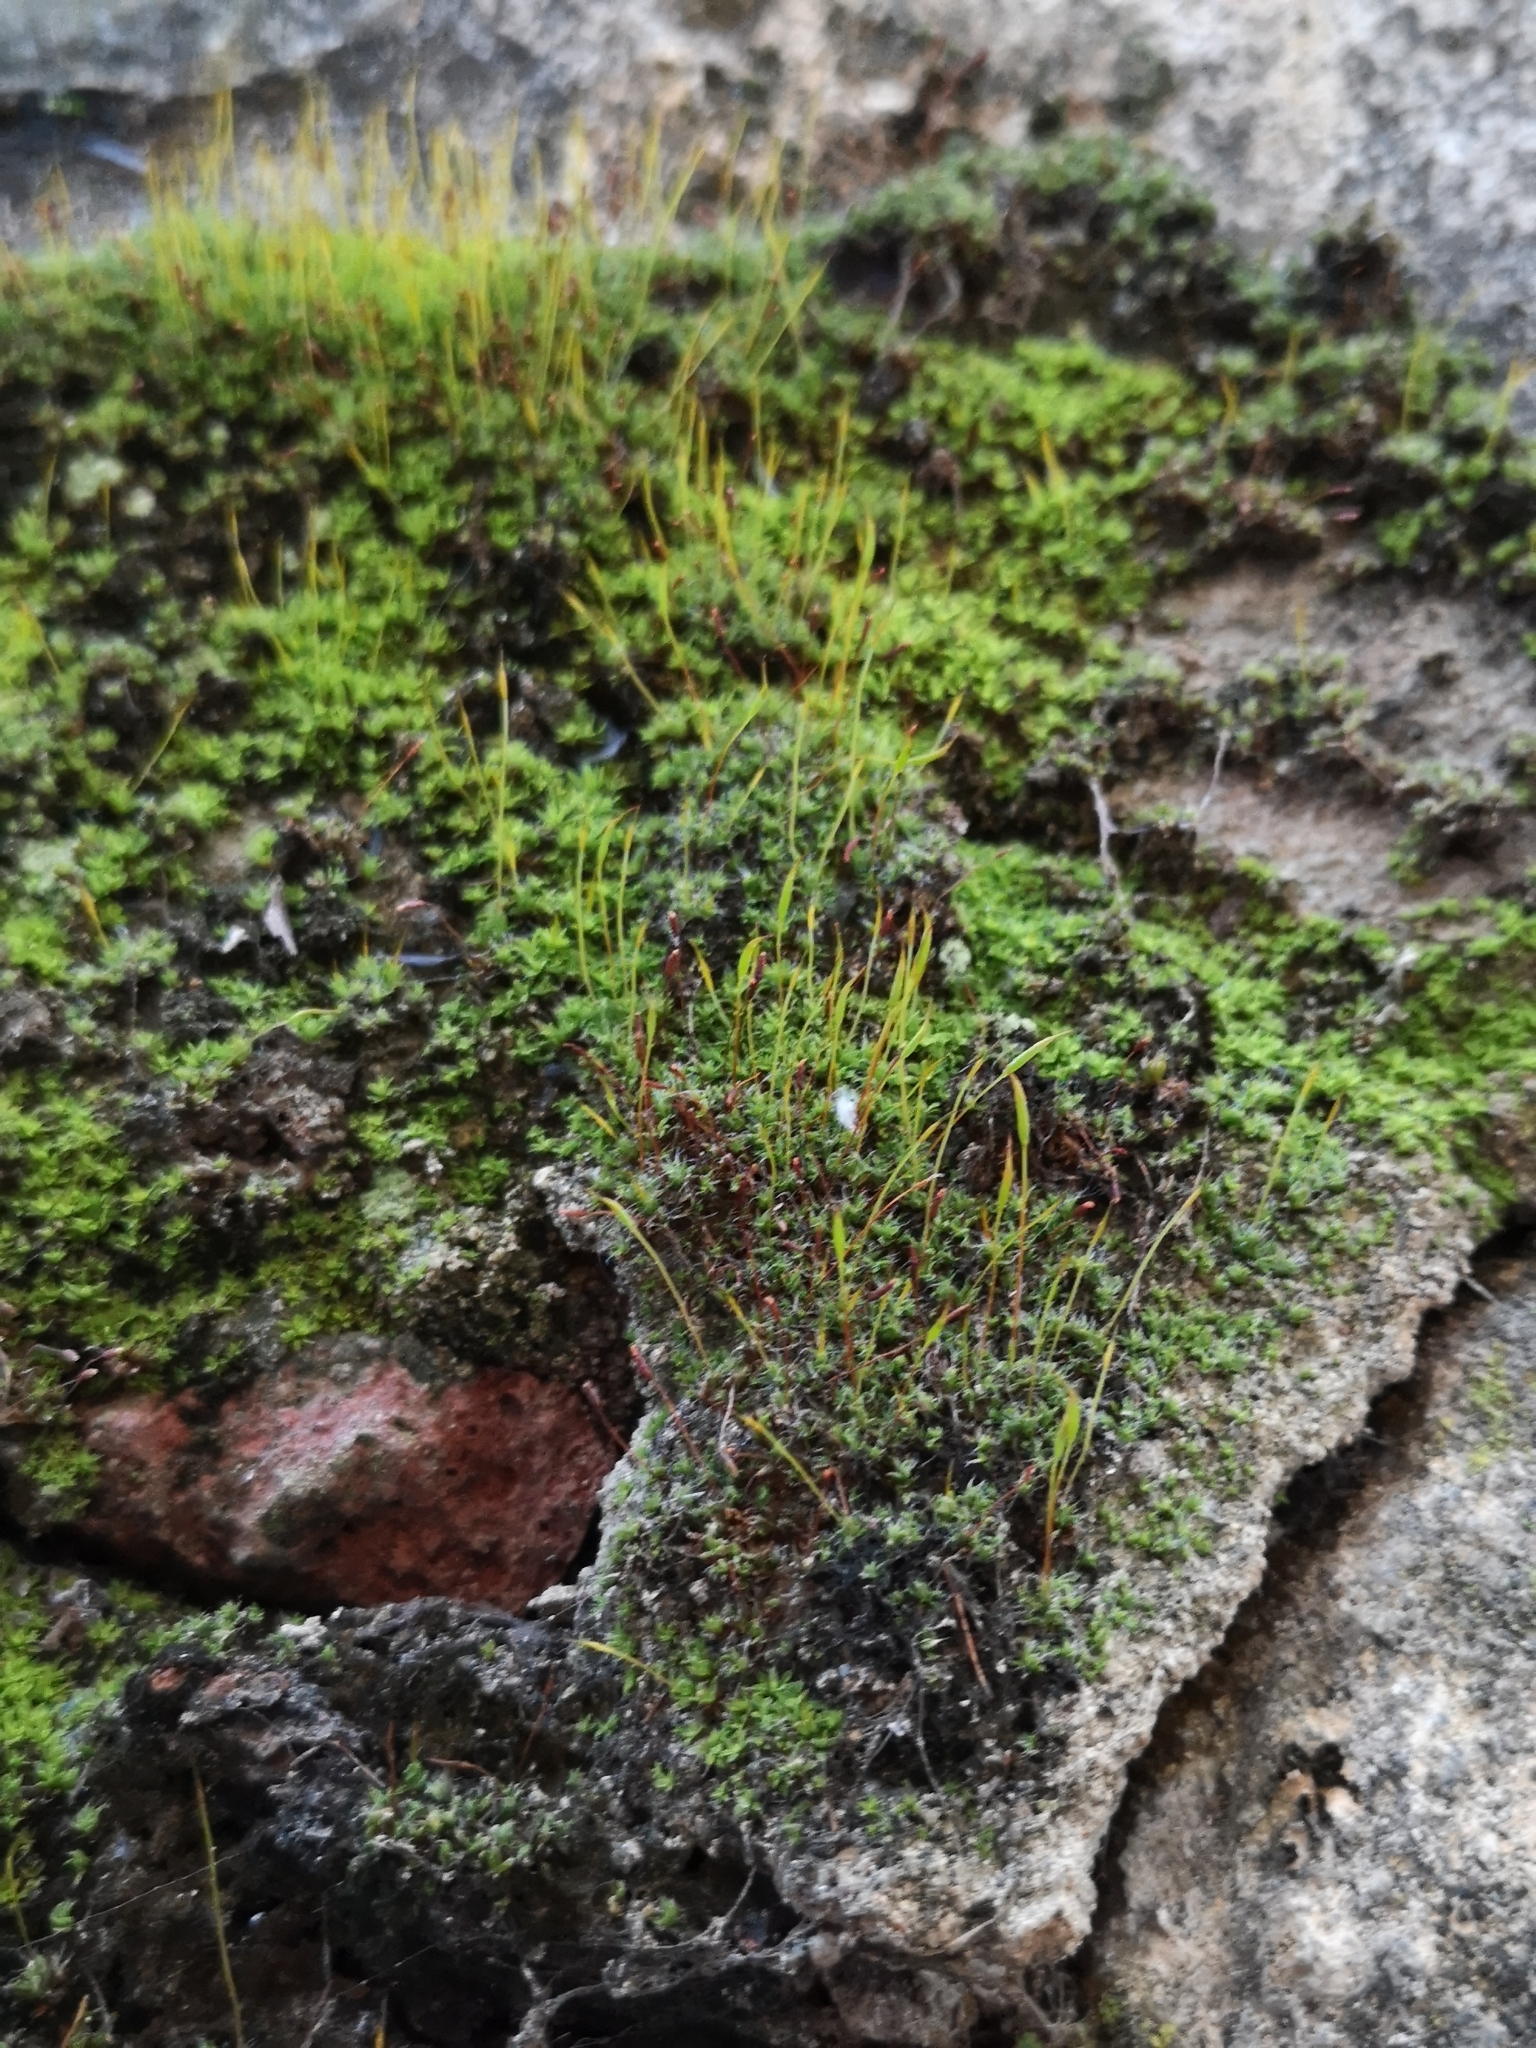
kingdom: Plantae
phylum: Bryophyta
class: Bryopsida
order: Pottiales
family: Pottiaceae
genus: Tortula
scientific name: Tortula muralis
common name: Wall screw-moss
